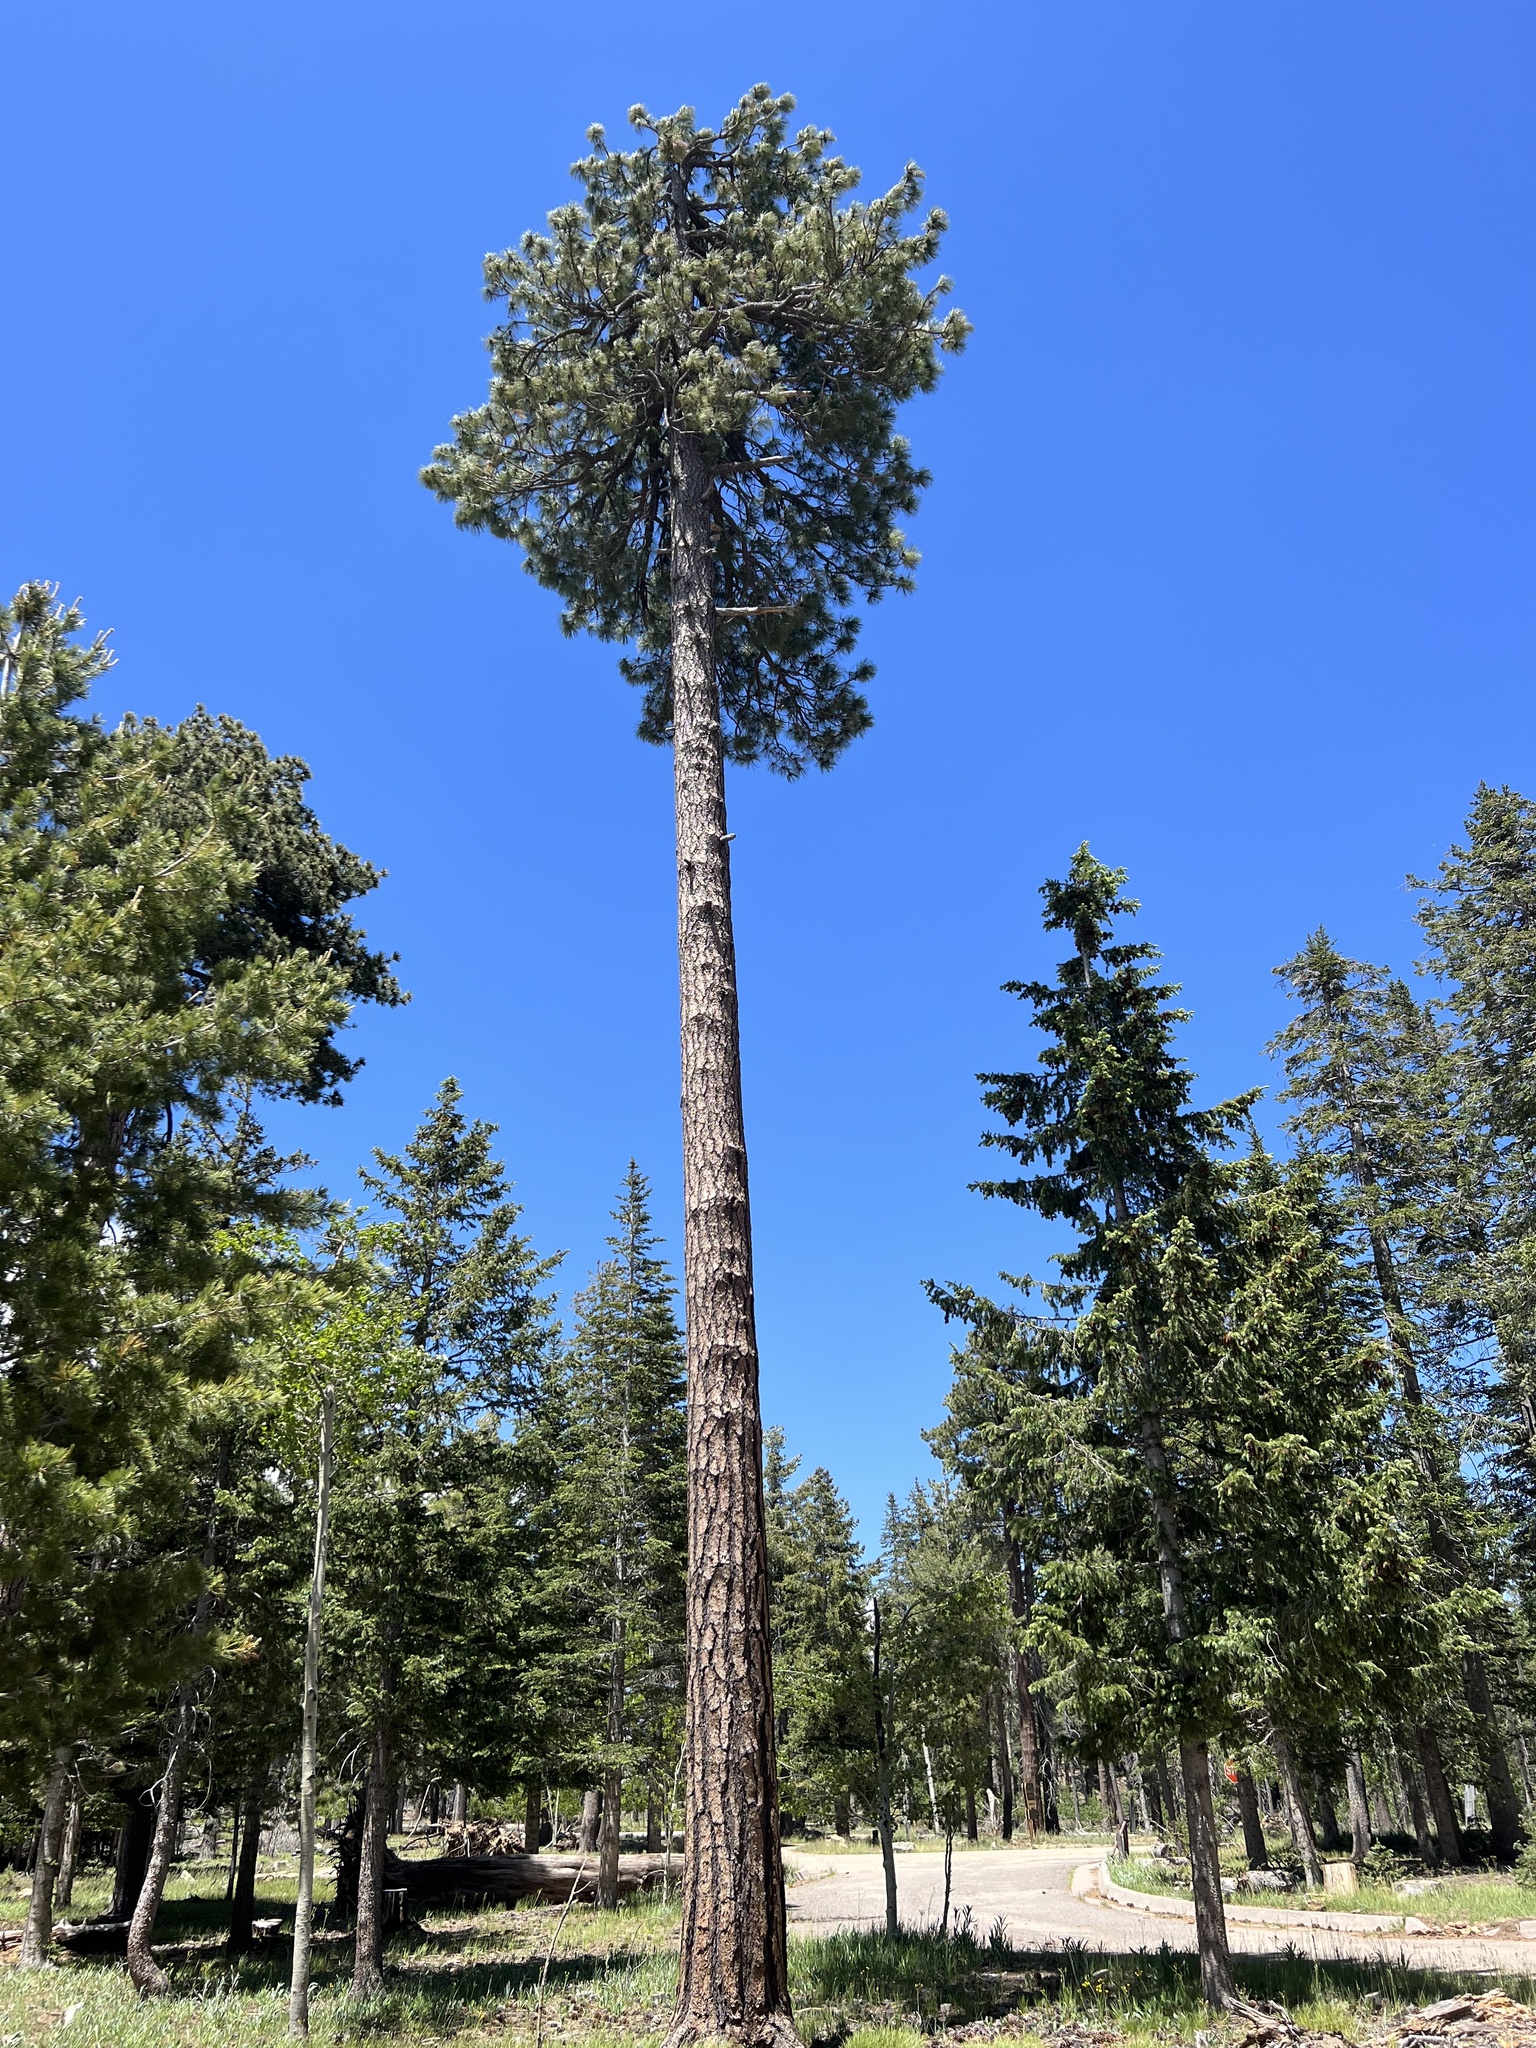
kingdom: Plantae
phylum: Tracheophyta
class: Pinopsida
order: Pinales
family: Pinaceae
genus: Pinus
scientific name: Pinus ponderosa
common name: Western yellow-pine
